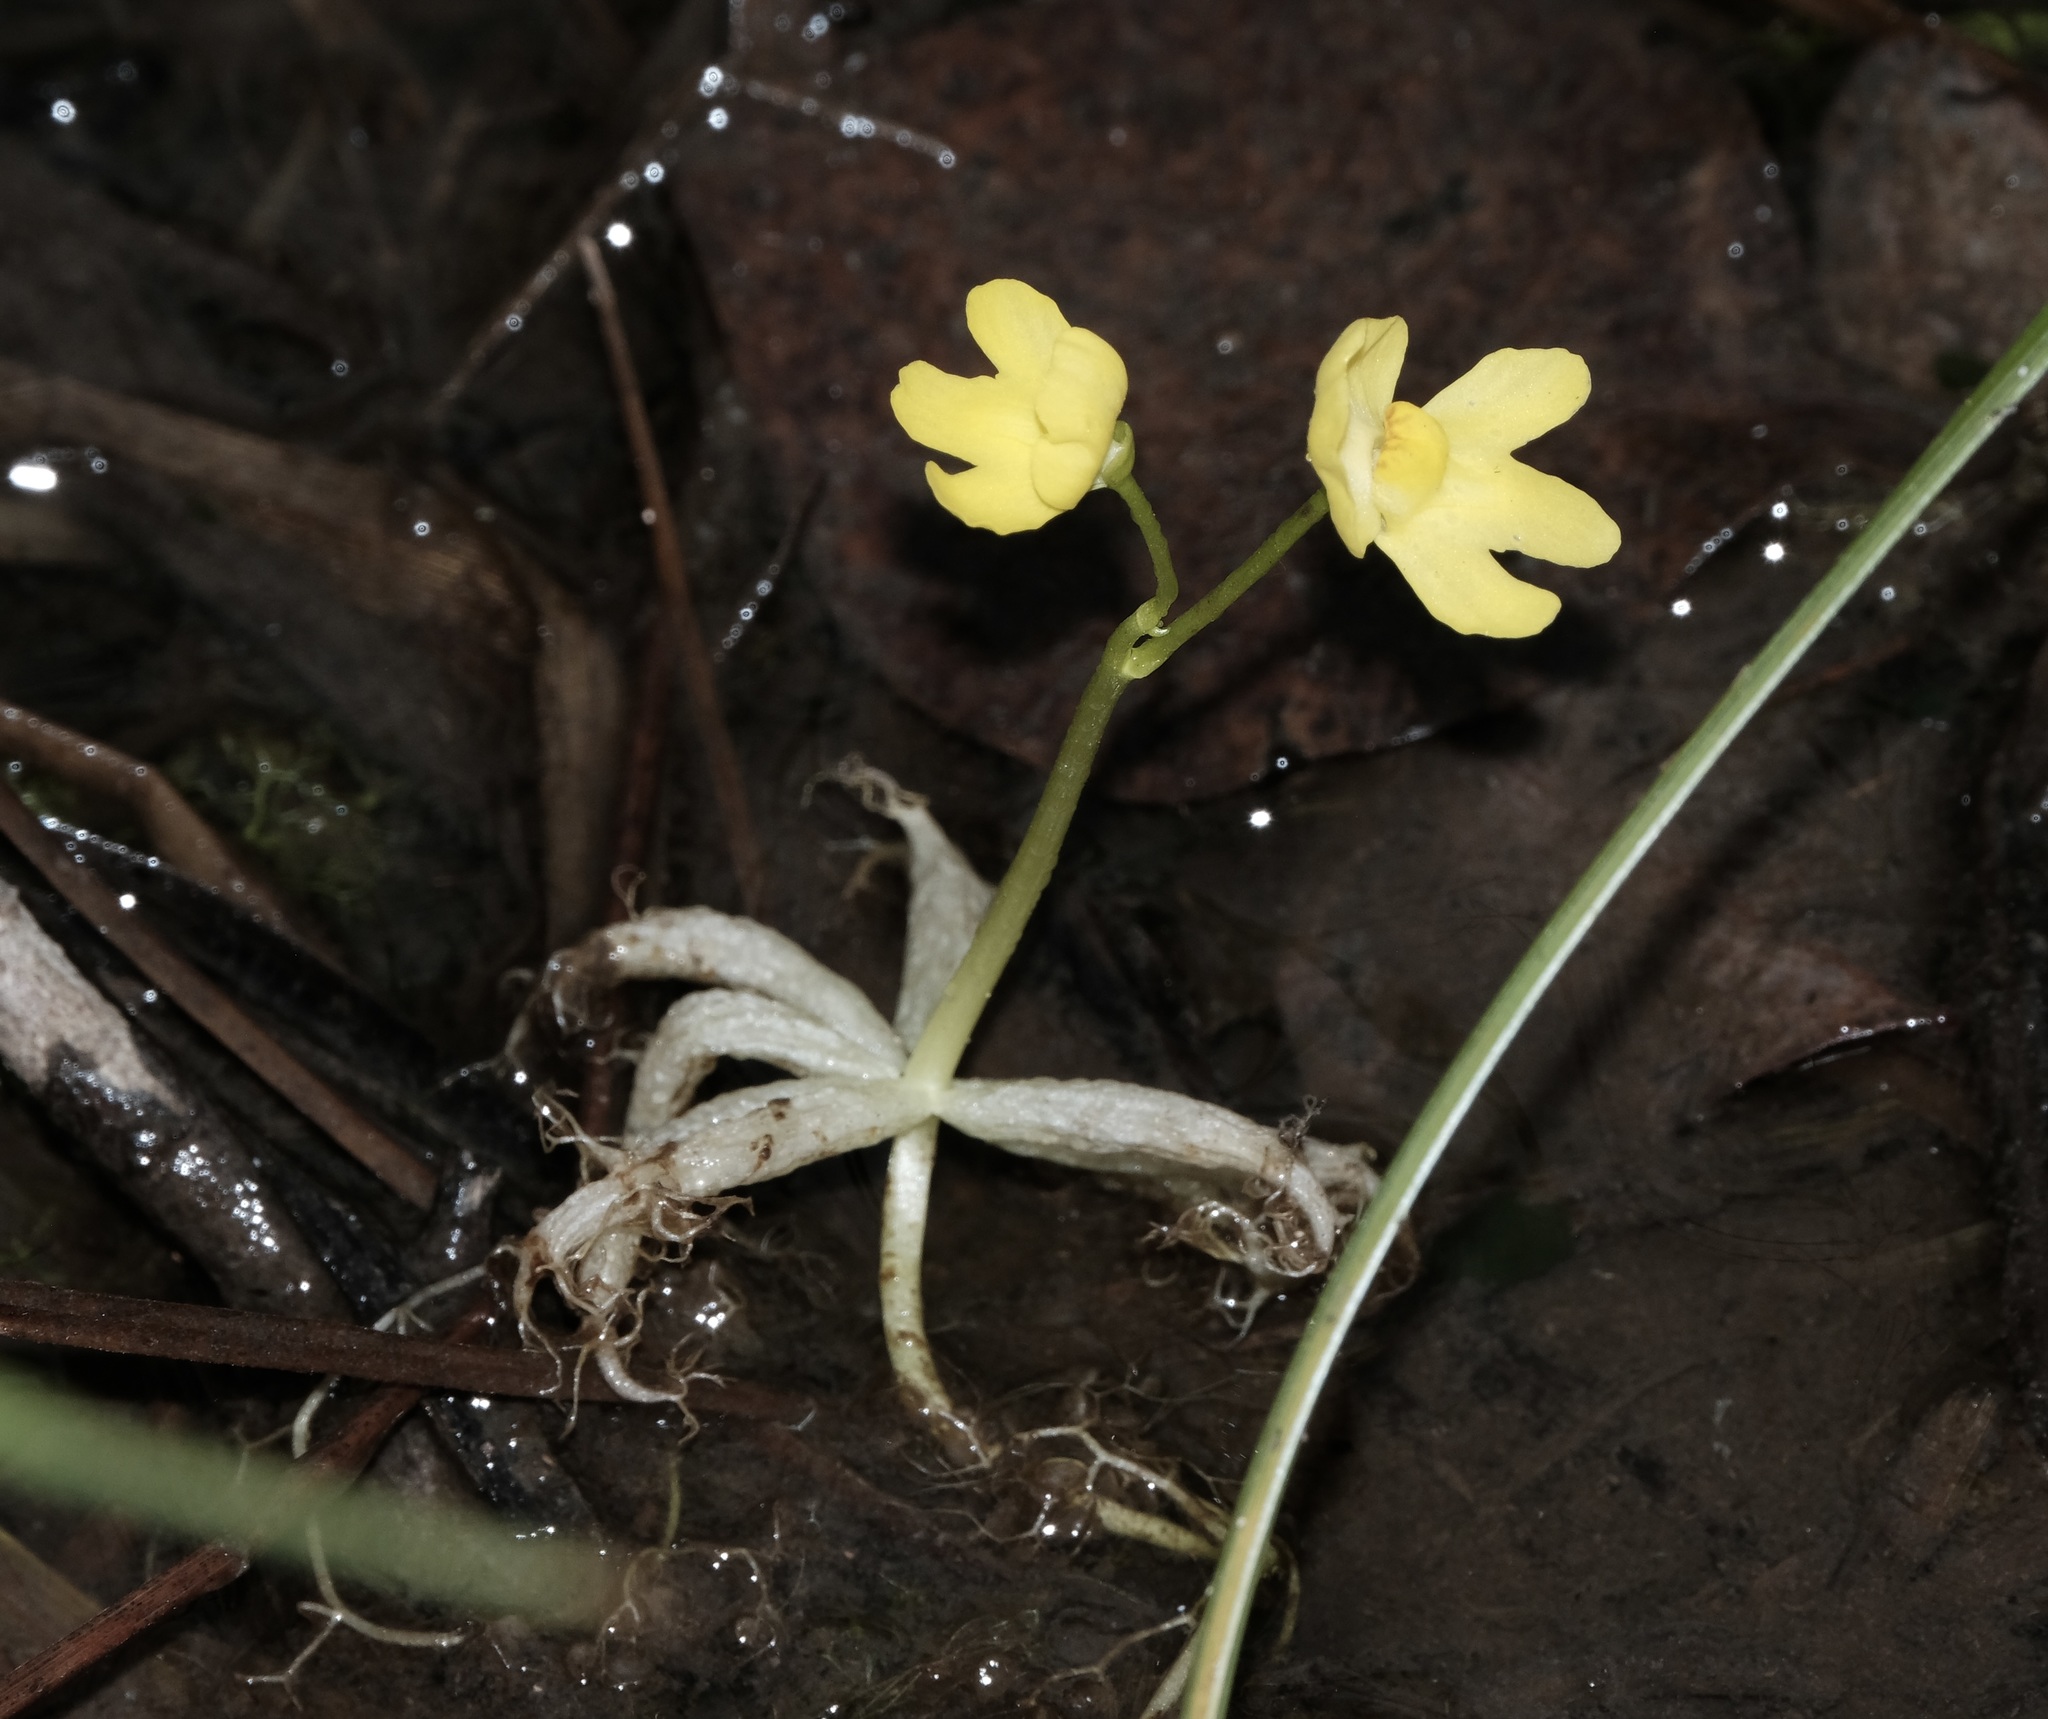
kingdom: Plantae
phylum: Tracheophyta
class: Magnoliopsida
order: Lamiales
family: Lentibulariaceae
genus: Utricularia
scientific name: Utricularia radiata
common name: Floating bladderwort
